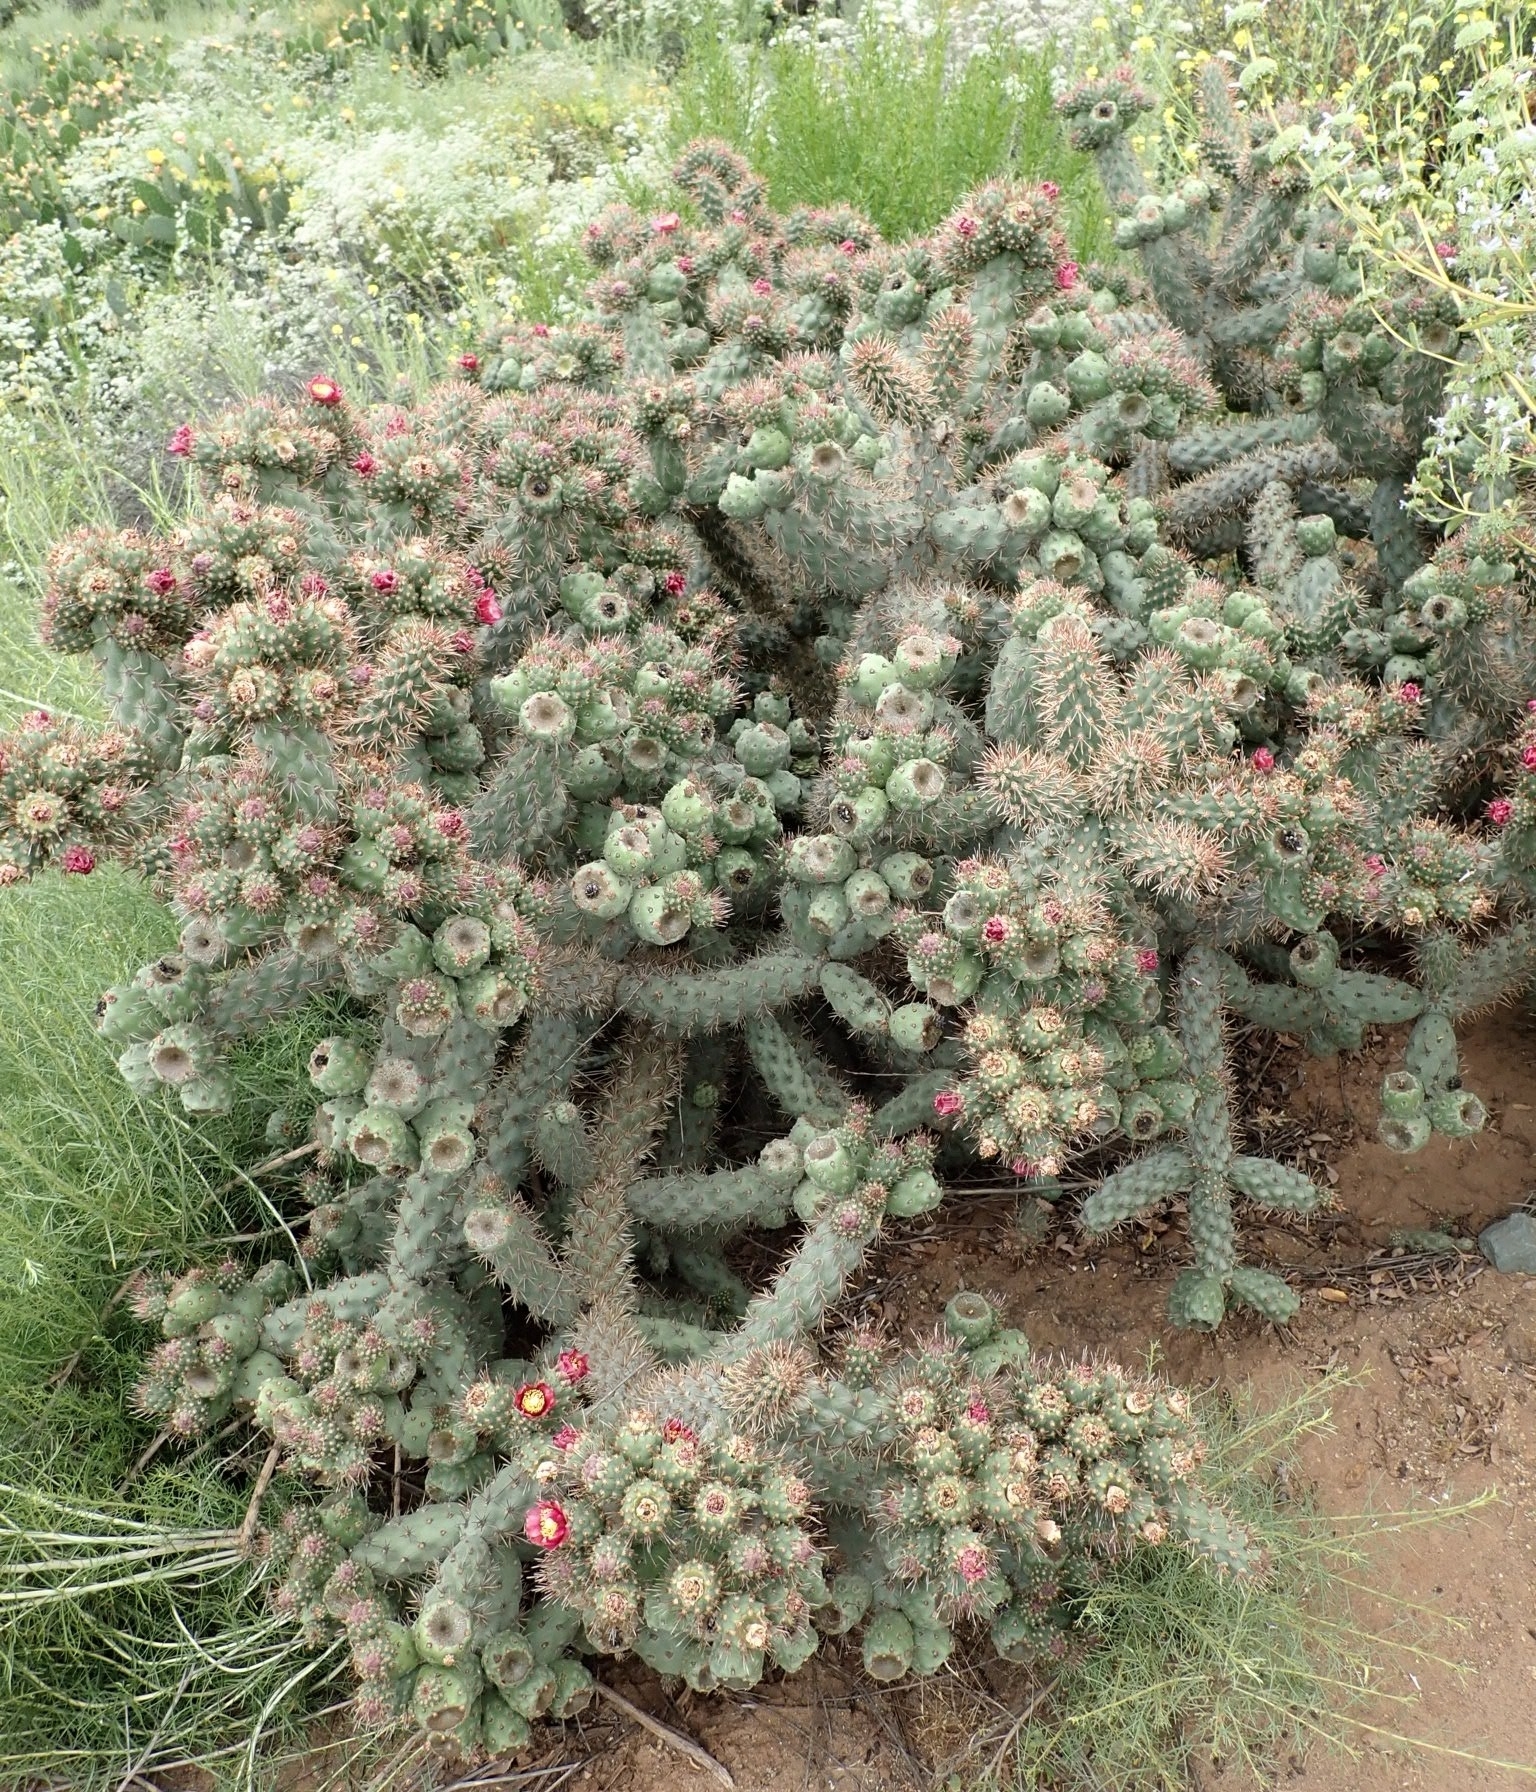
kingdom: Plantae
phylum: Tracheophyta
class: Magnoliopsida
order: Caryophyllales
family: Cactaceae
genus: Cylindropuntia
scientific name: Cylindropuntia prolifera
